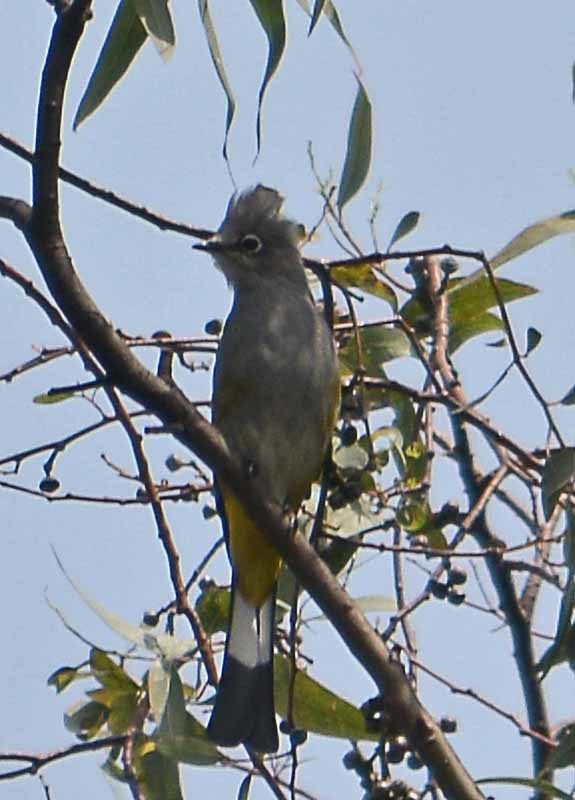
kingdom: Animalia
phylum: Chordata
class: Aves
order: Passeriformes
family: Ptilogonatidae
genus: Ptilogonys
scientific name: Ptilogonys cinereus
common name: Gray silky-flycatcher
